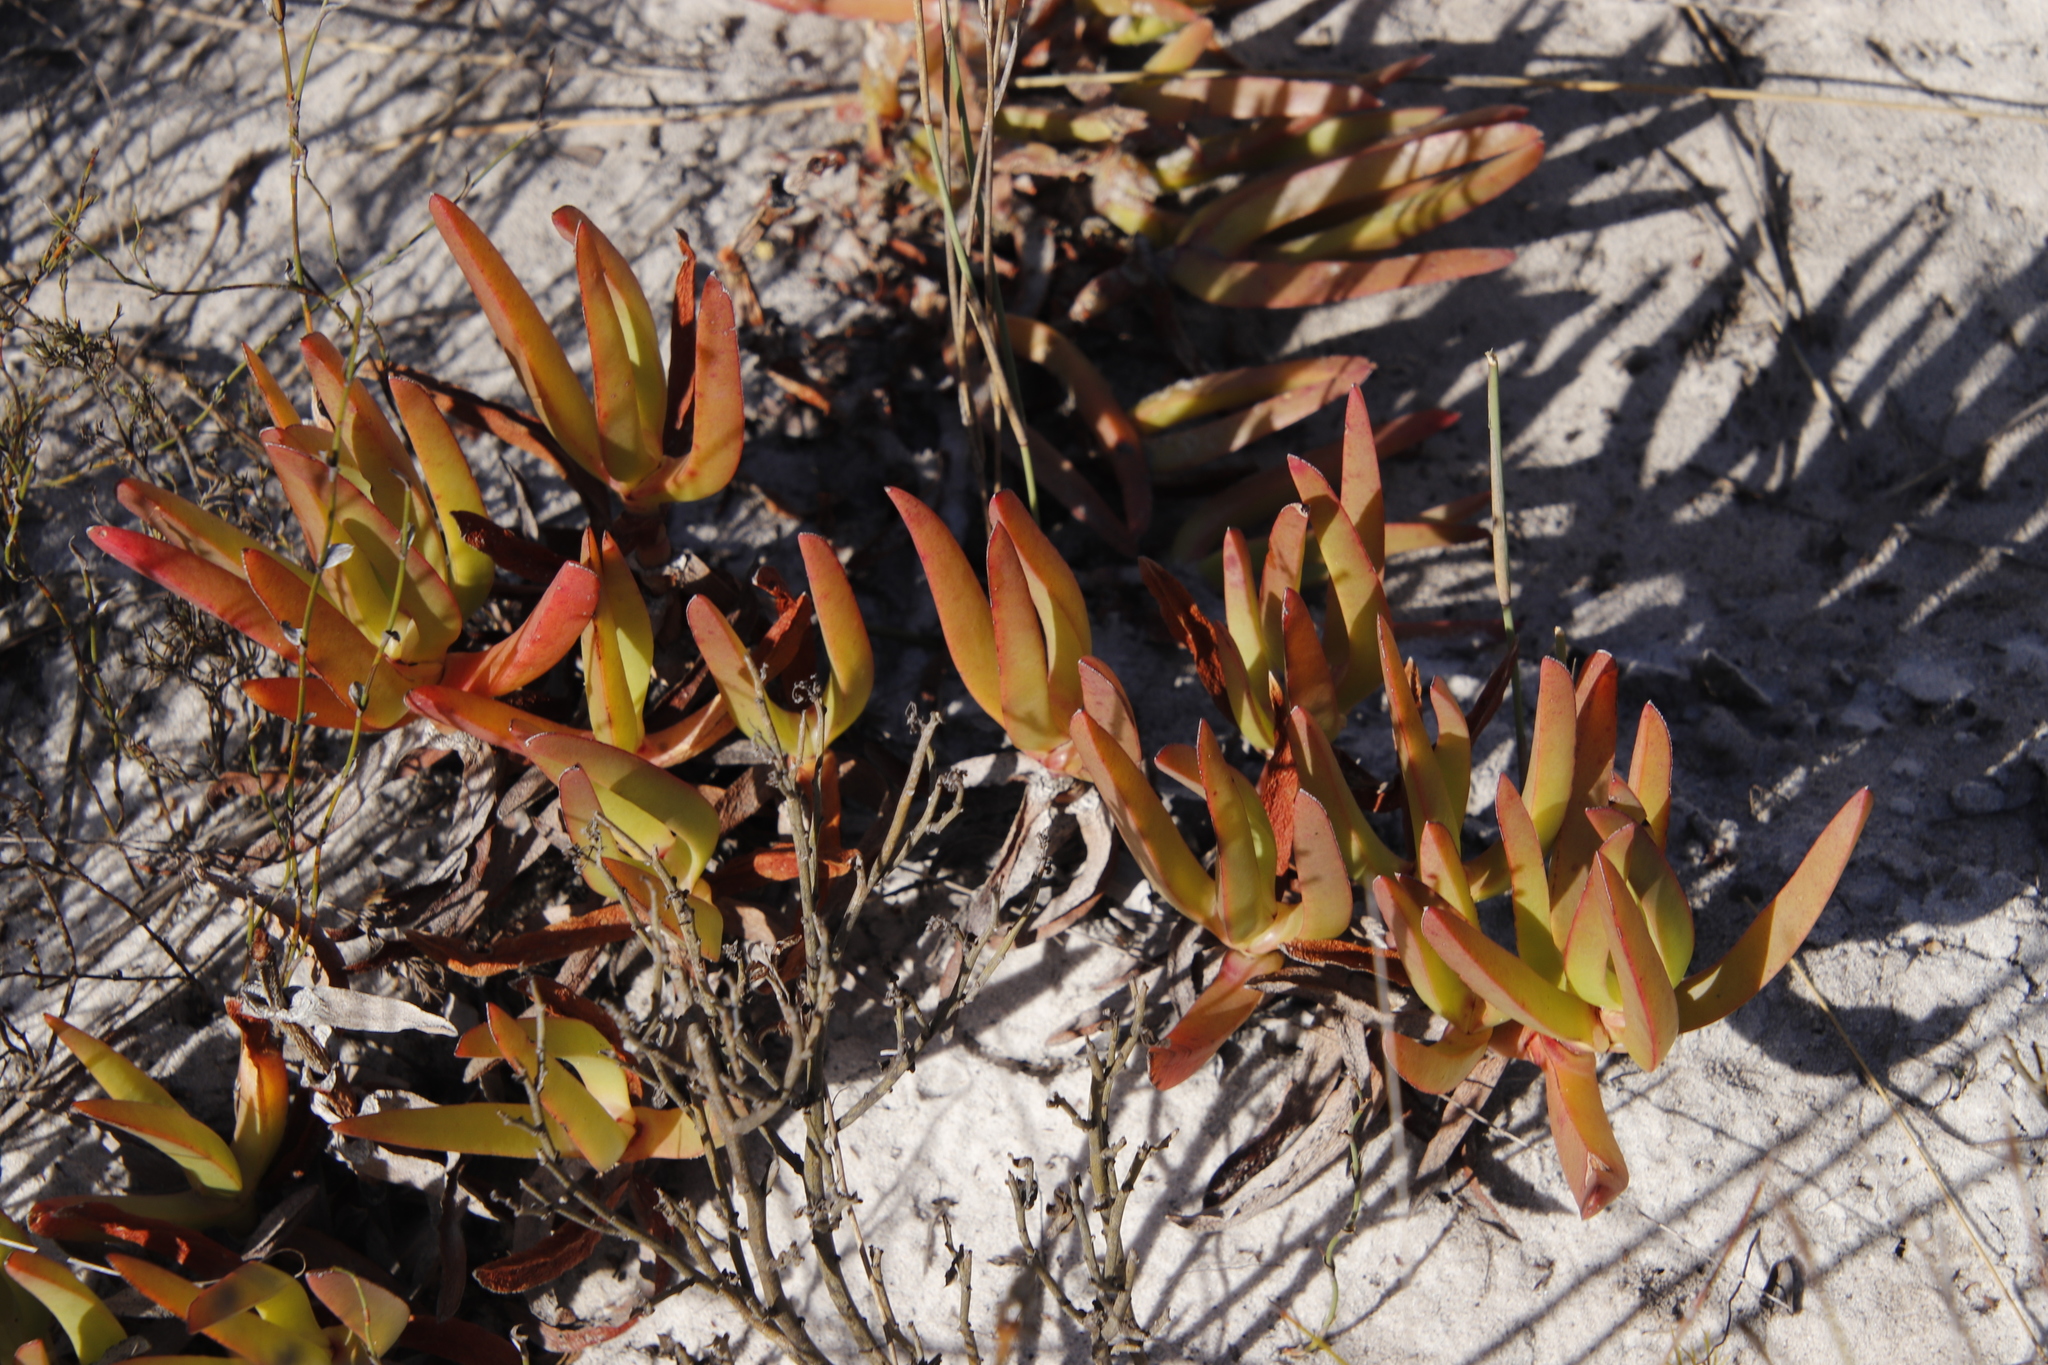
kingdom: Plantae
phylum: Tracheophyta
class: Magnoliopsida
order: Caryophyllales
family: Aizoaceae
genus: Carpobrotus
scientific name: Carpobrotus edulis
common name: Hottentot-fig
